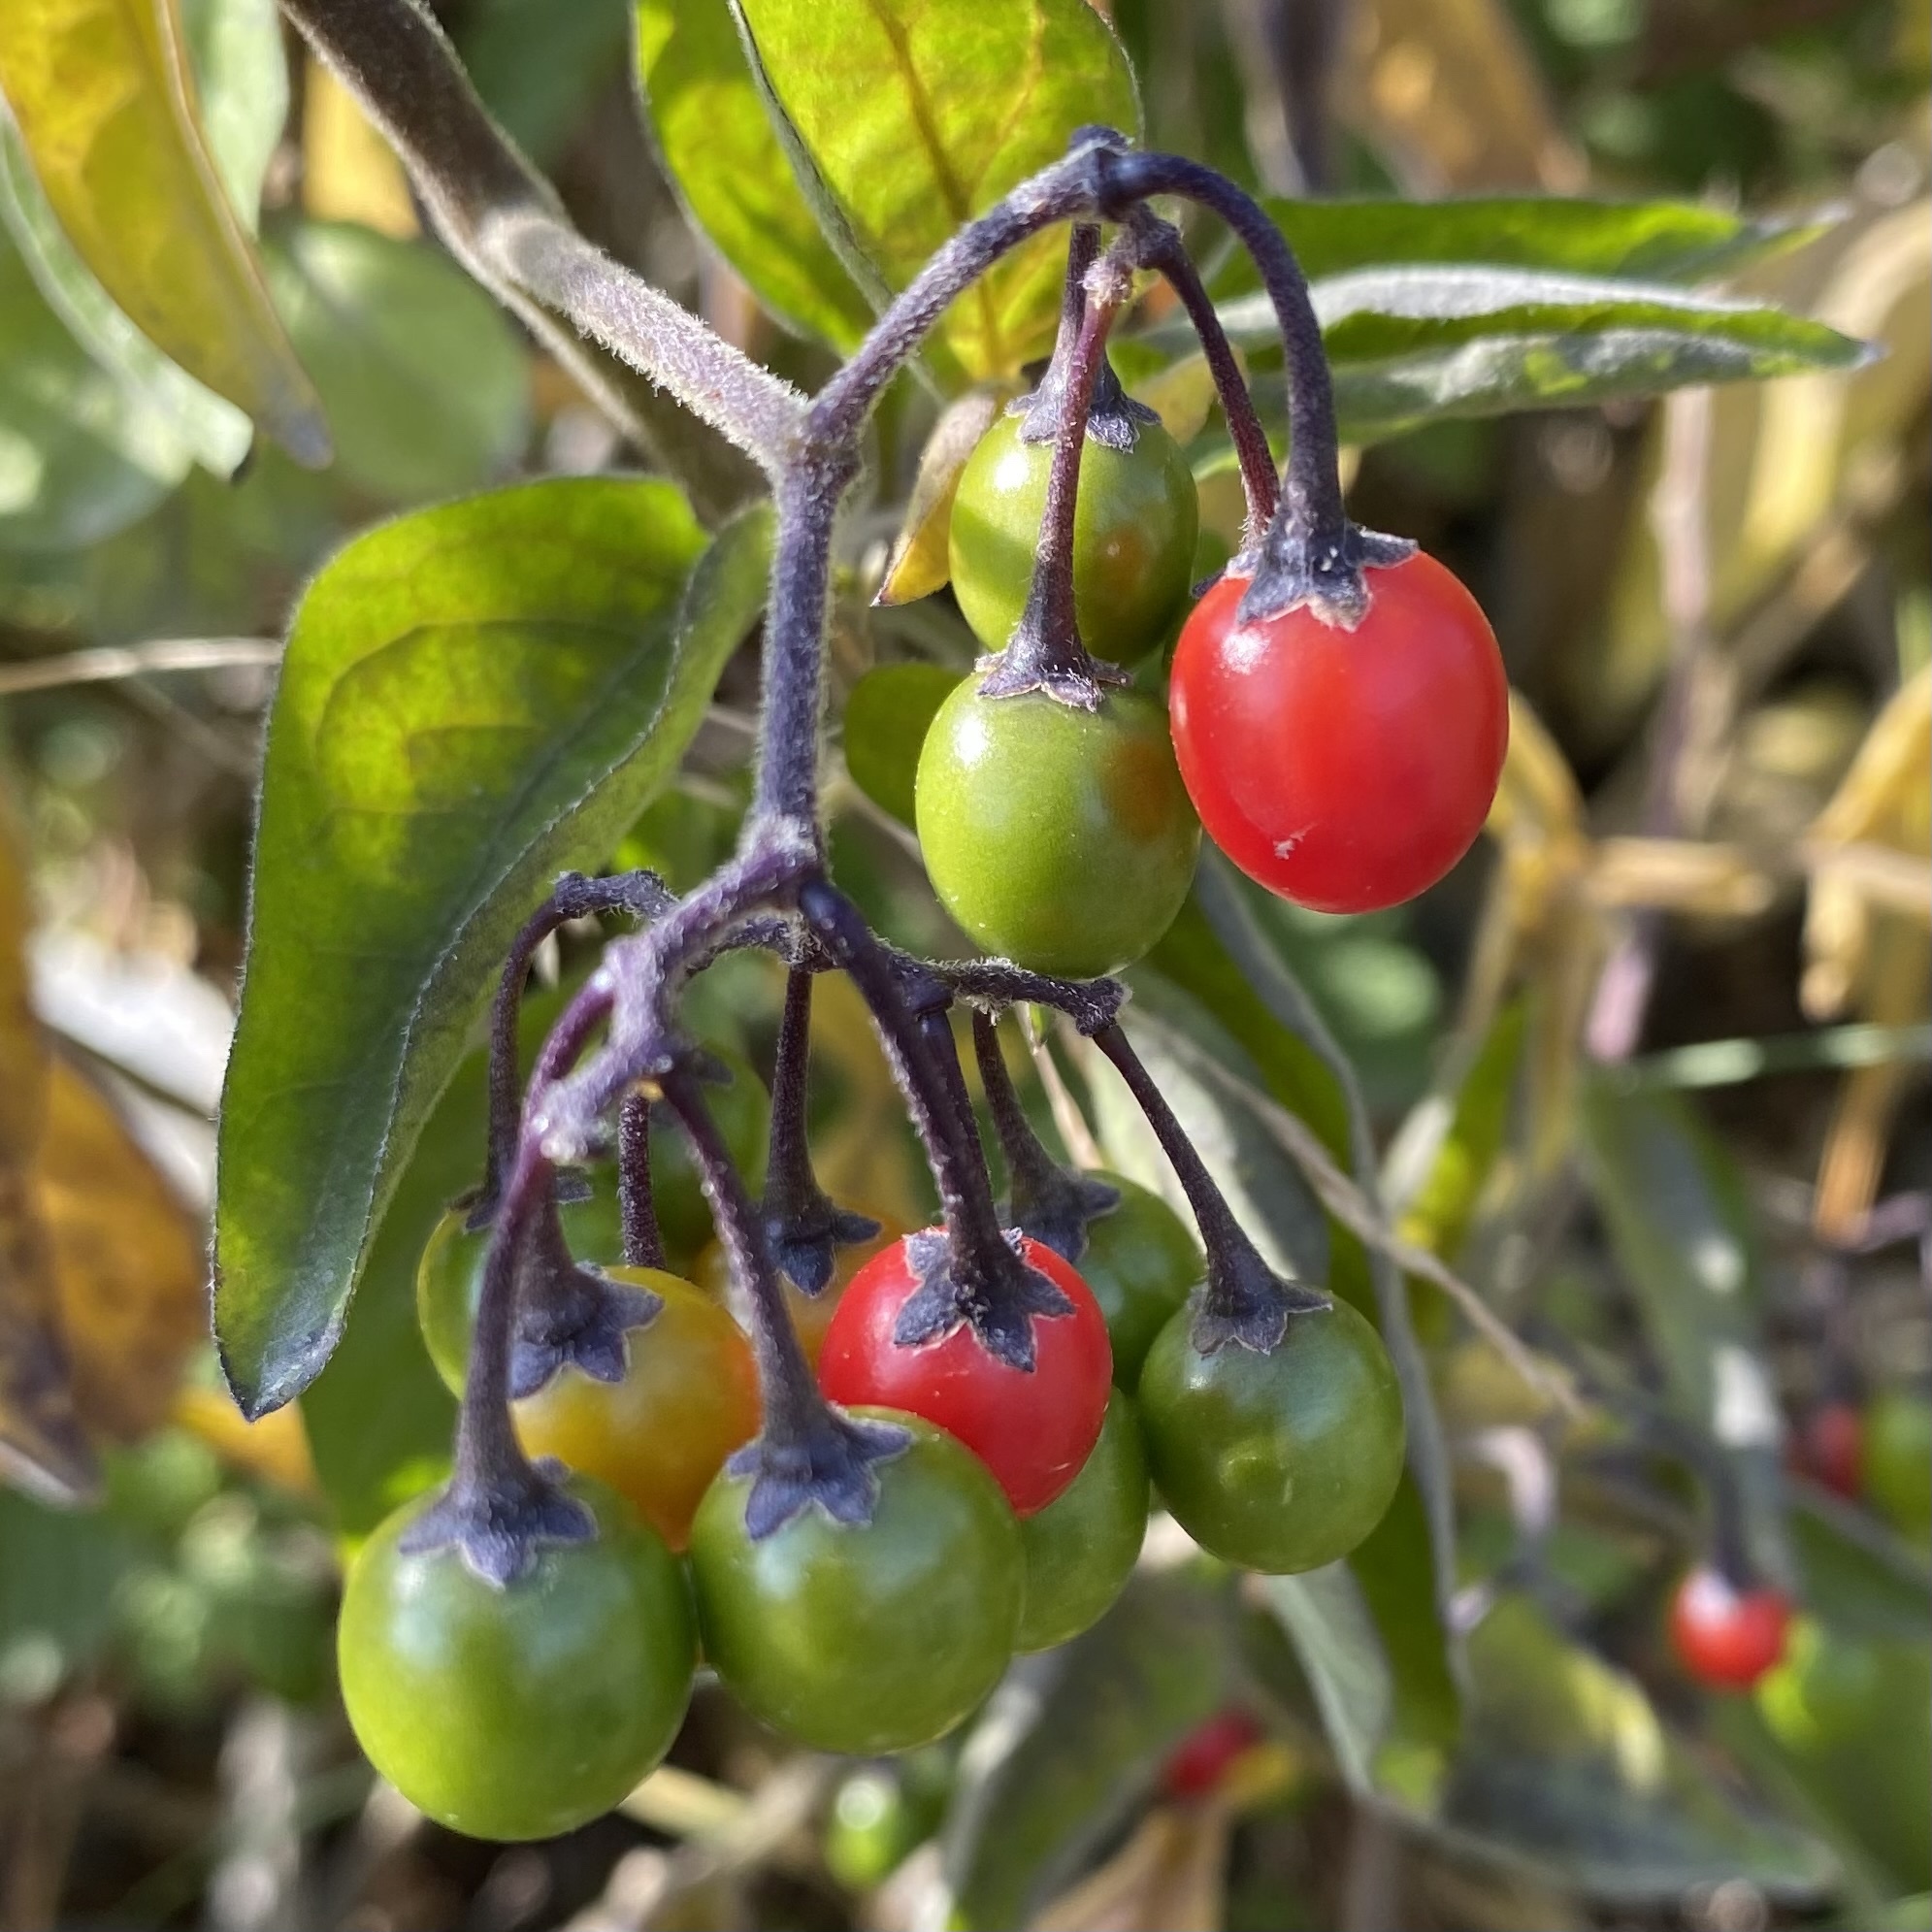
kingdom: Plantae
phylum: Tracheophyta
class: Magnoliopsida
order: Solanales
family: Solanaceae
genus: Solanum
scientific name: Solanum dulcamara
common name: Climbing nightshade
